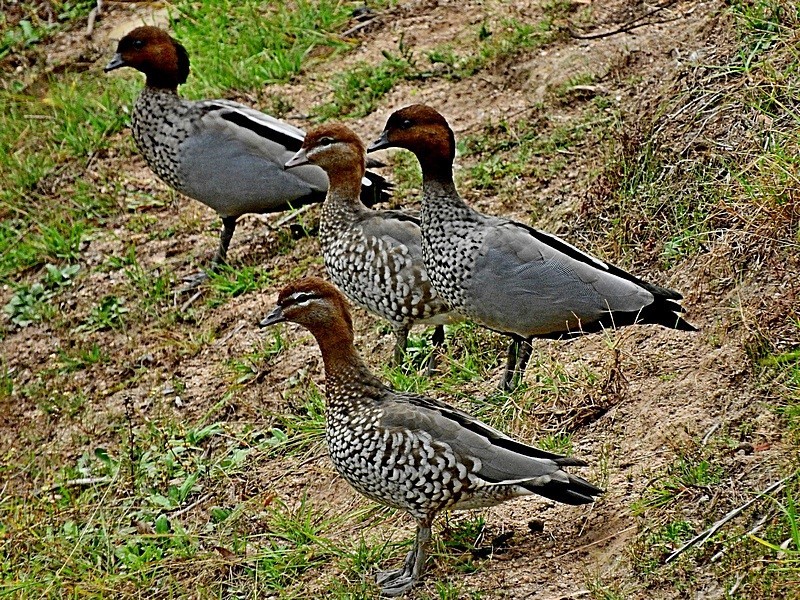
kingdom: Animalia
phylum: Chordata
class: Aves
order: Anseriformes
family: Anatidae
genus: Chenonetta
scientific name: Chenonetta jubata
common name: Maned duck
